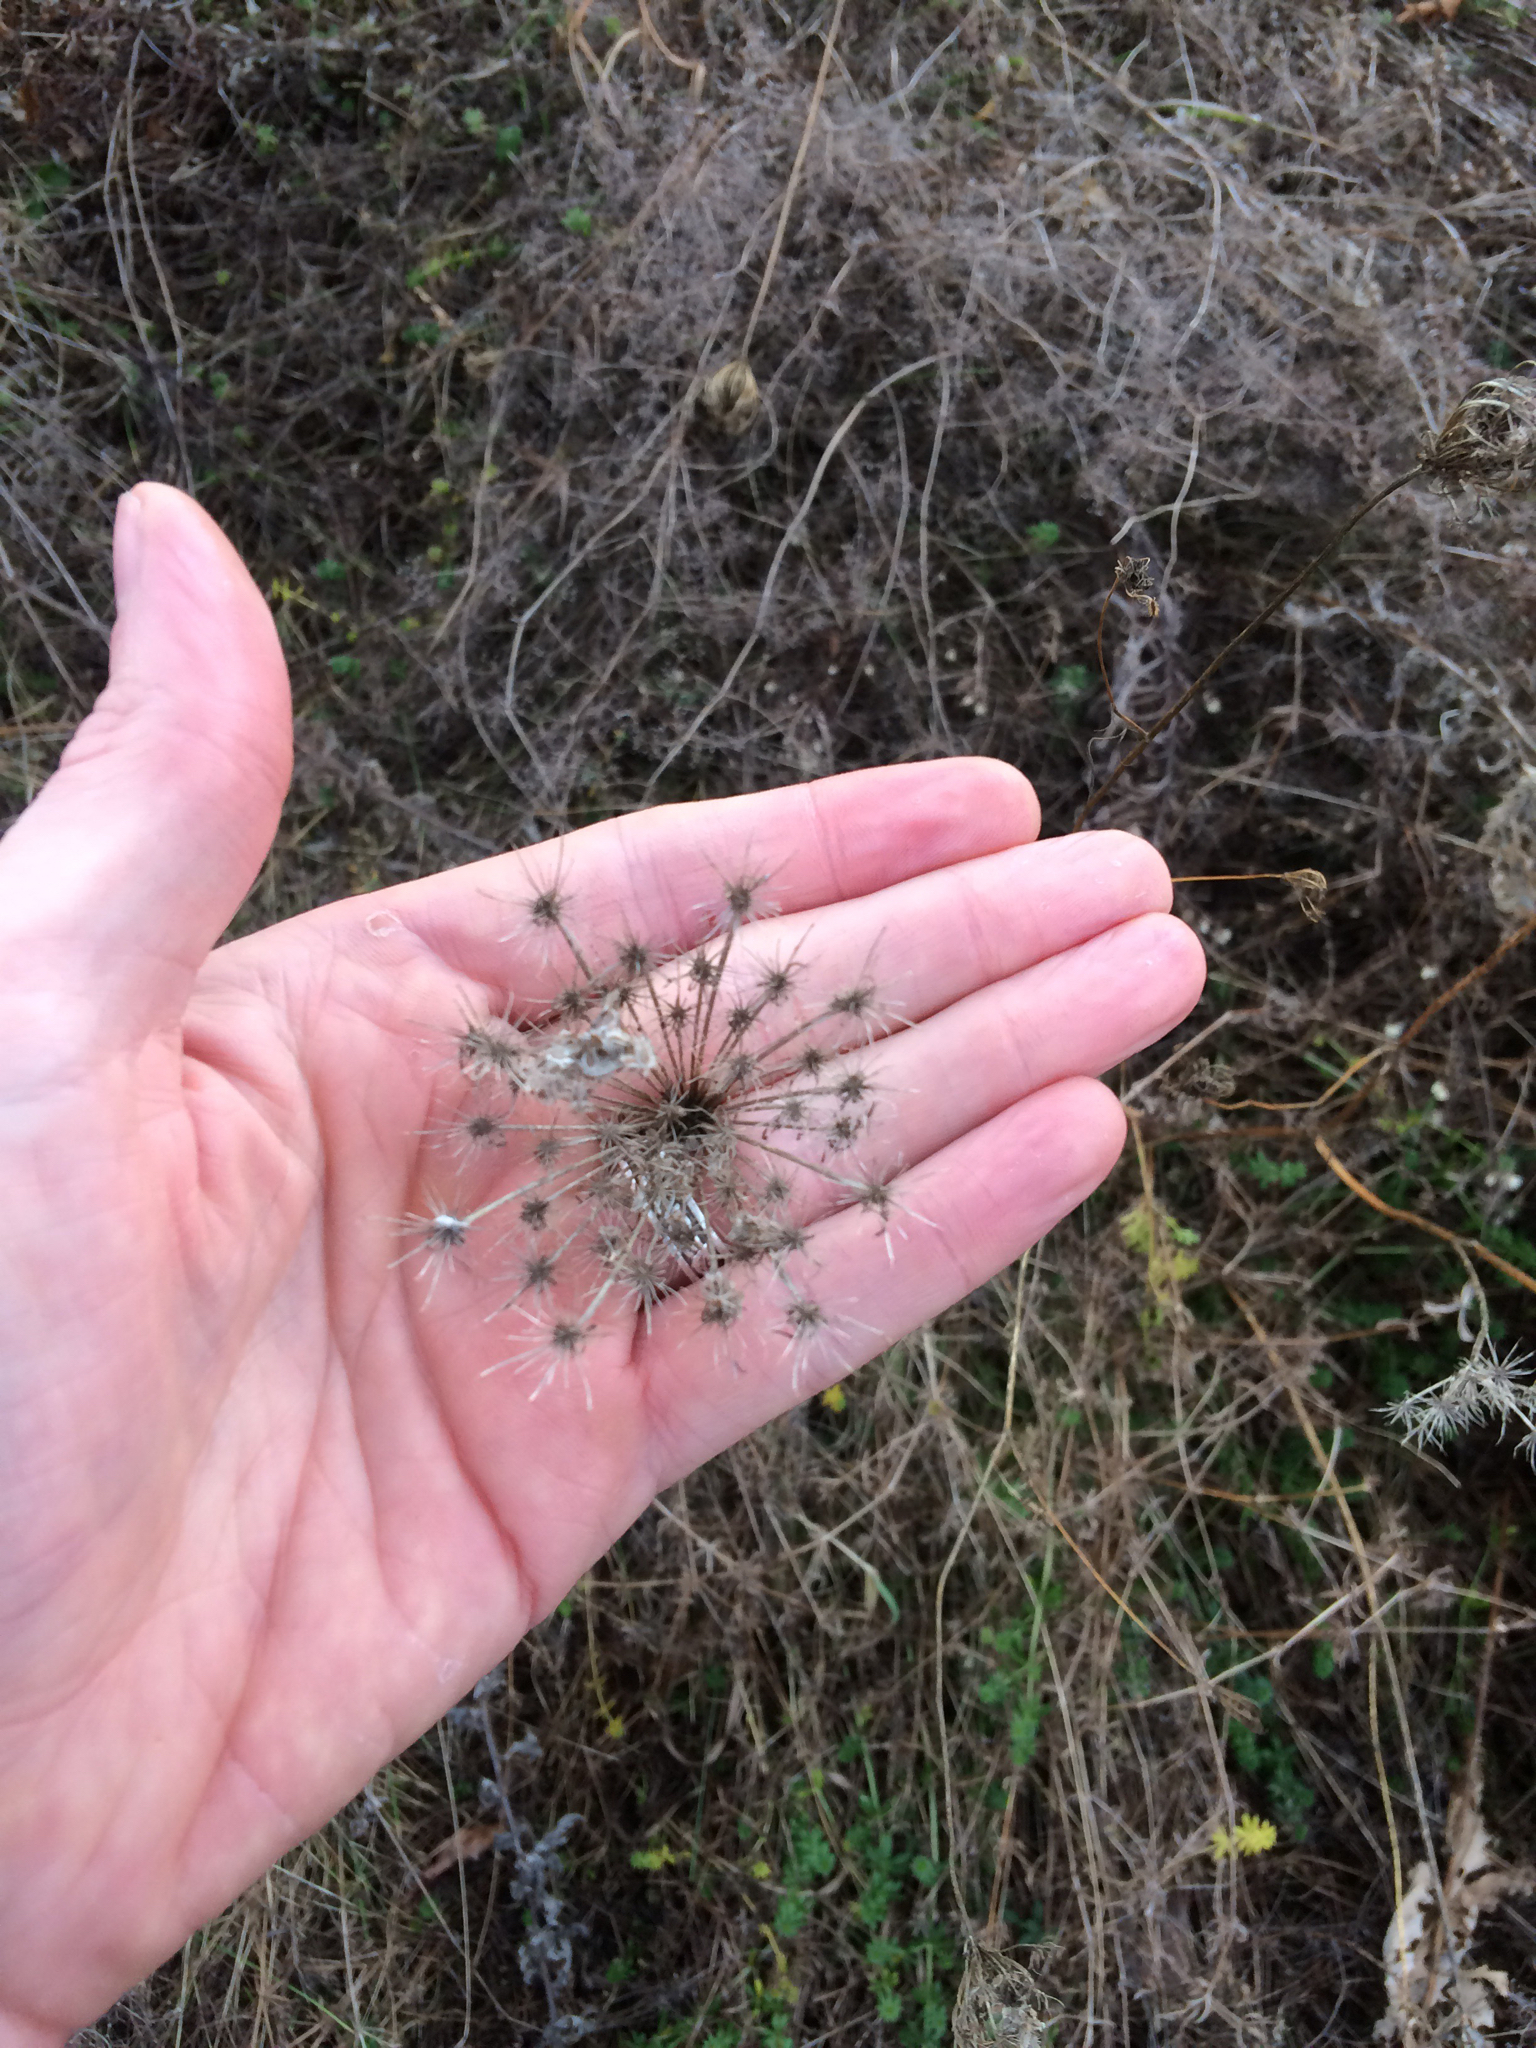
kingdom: Plantae
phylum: Tracheophyta
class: Magnoliopsida
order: Apiales
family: Apiaceae
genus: Daucus
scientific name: Daucus carota
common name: Wild carrot
